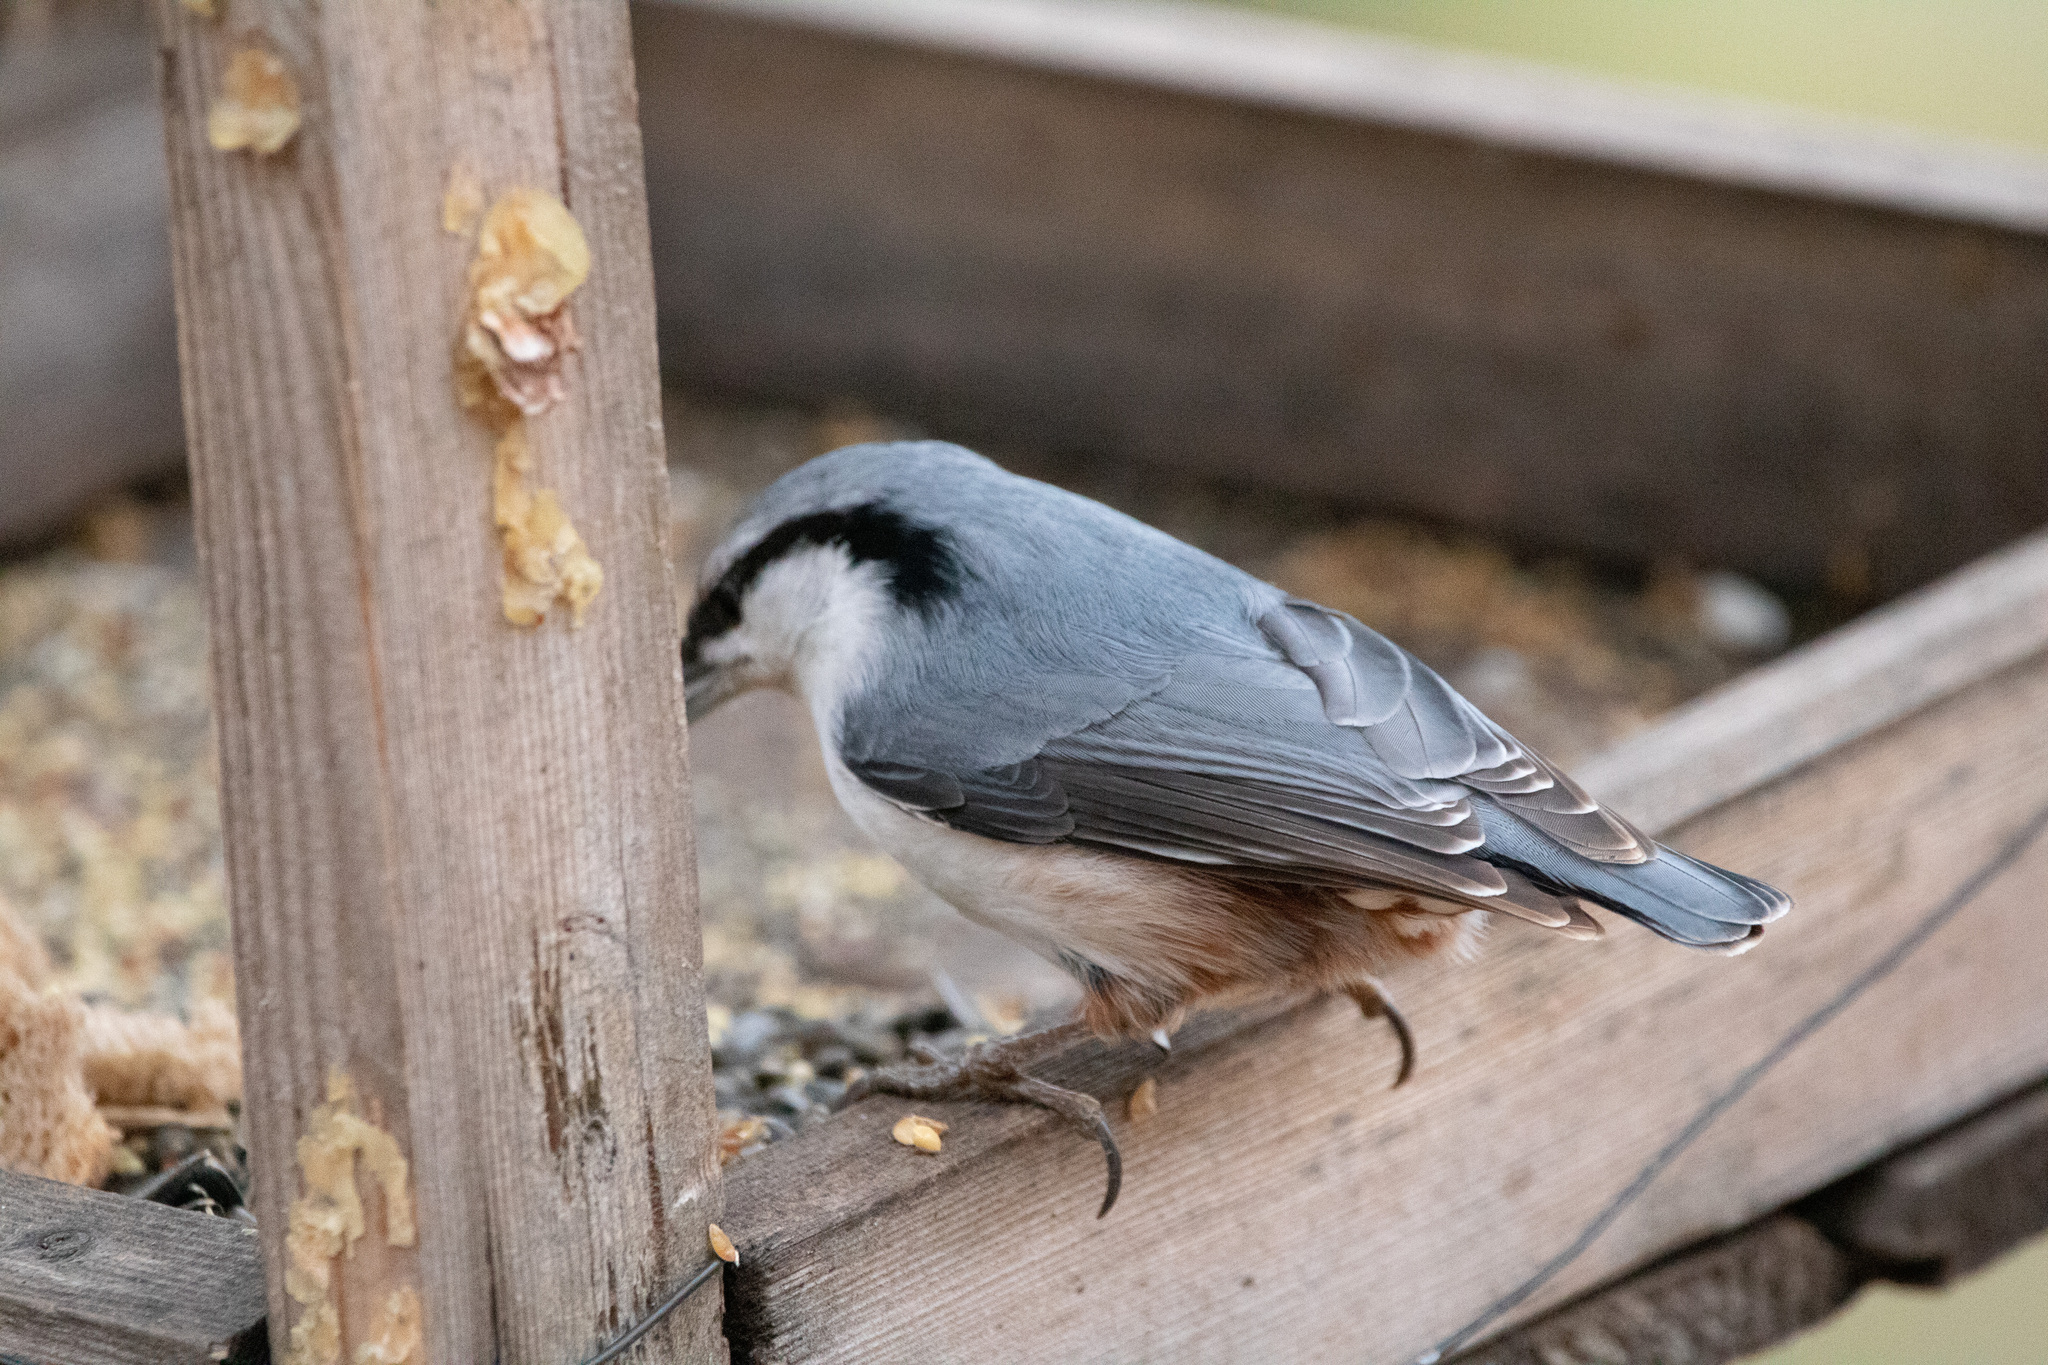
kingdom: Animalia
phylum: Chordata
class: Aves
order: Passeriformes
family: Sittidae
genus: Sitta
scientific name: Sitta europaea
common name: Eurasian nuthatch
